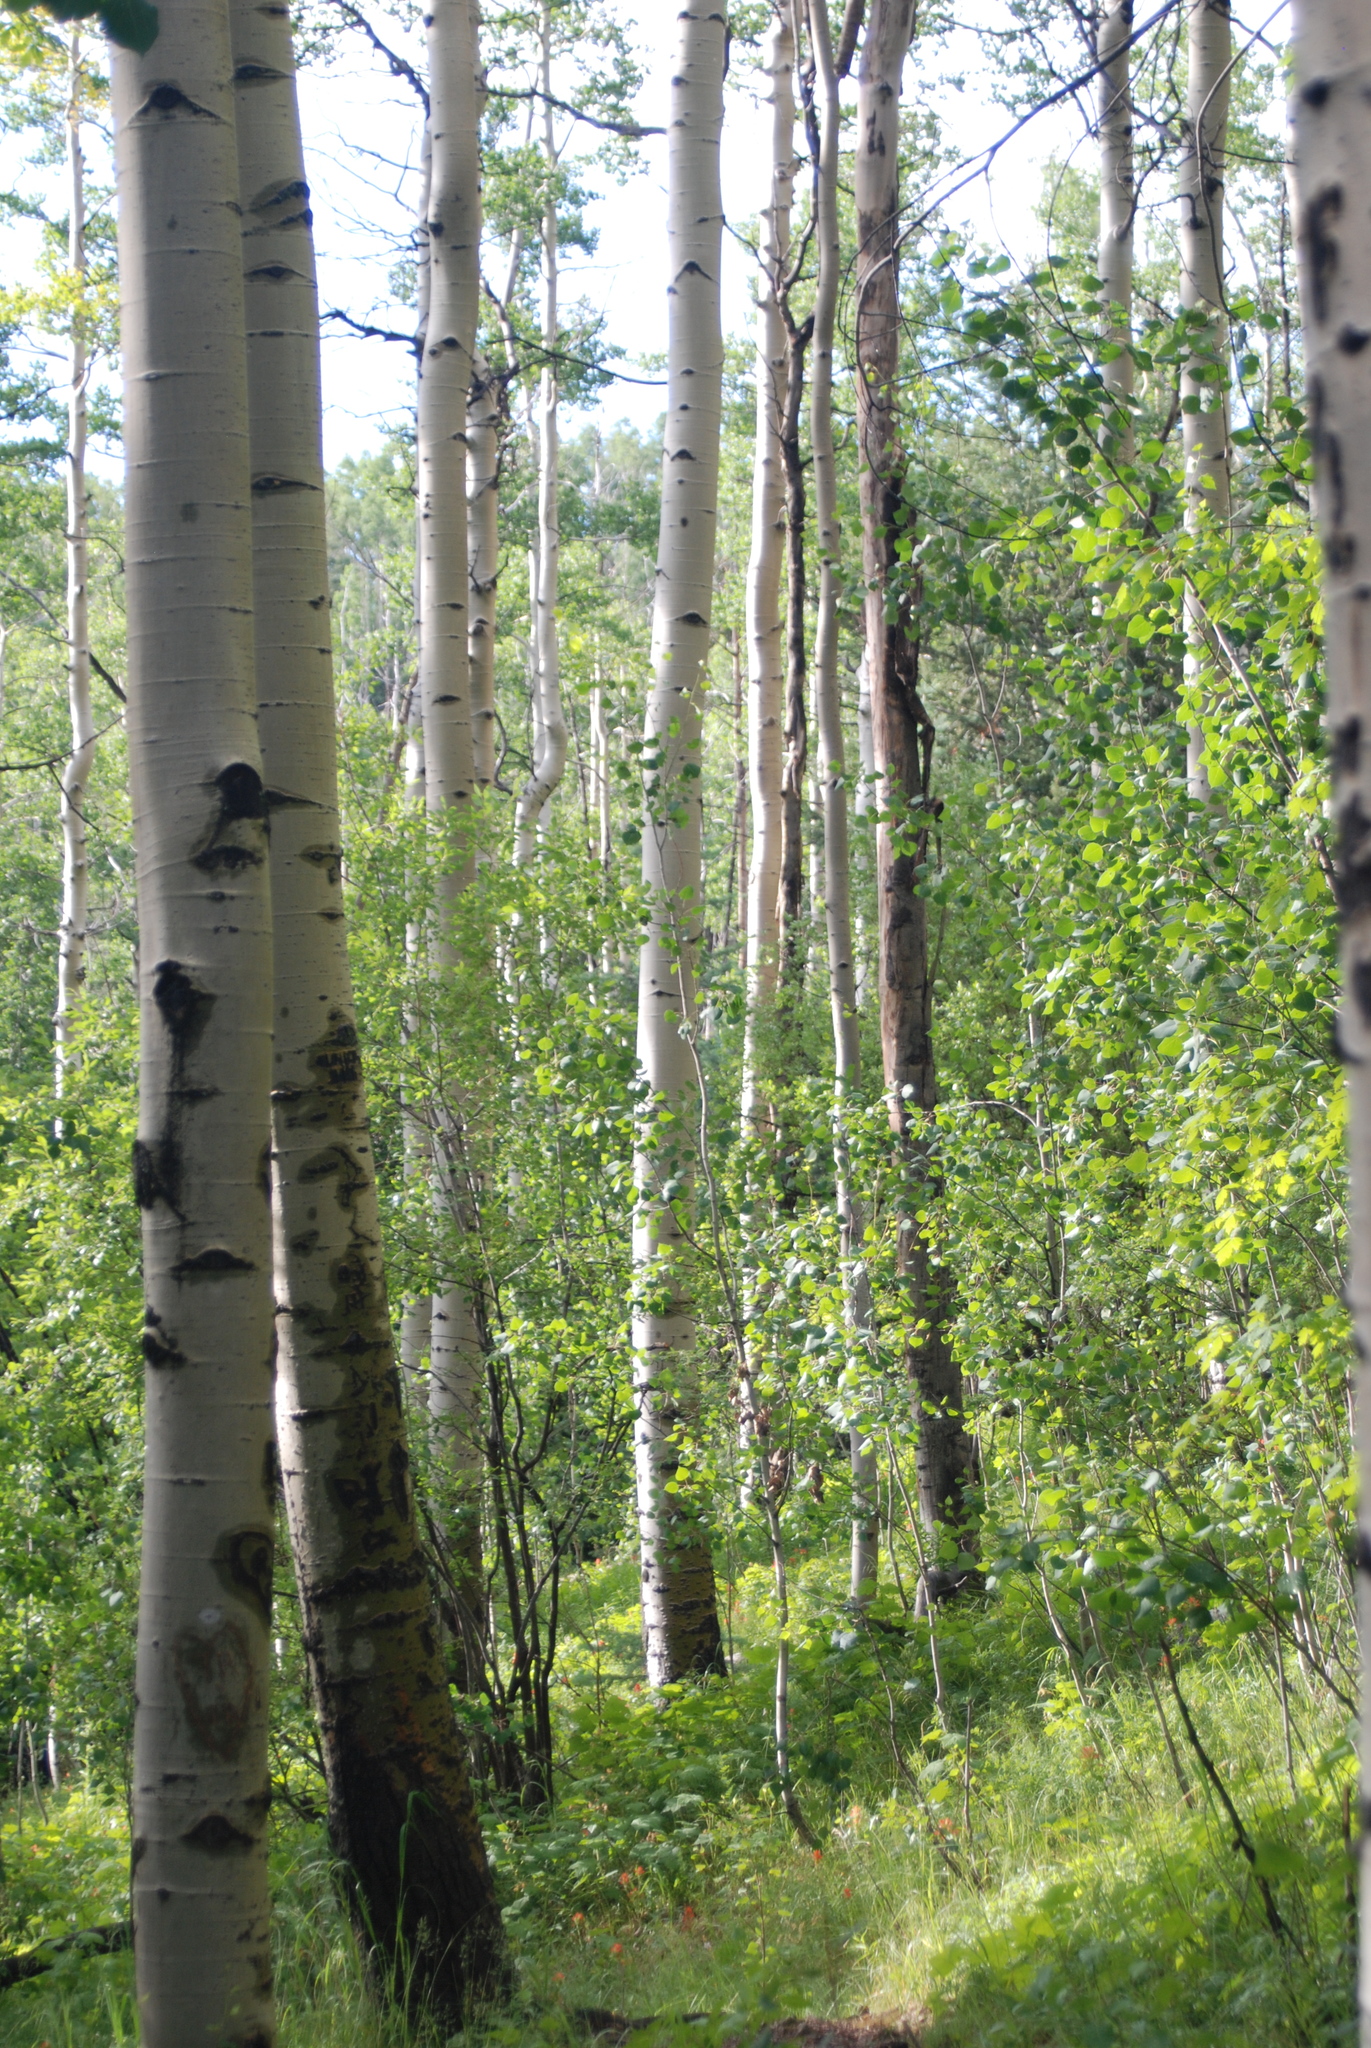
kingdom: Plantae
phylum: Tracheophyta
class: Magnoliopsida
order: Malpighiales
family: Salicaceae
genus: Populus
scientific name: Populus tremuloides
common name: Quaking aspen
